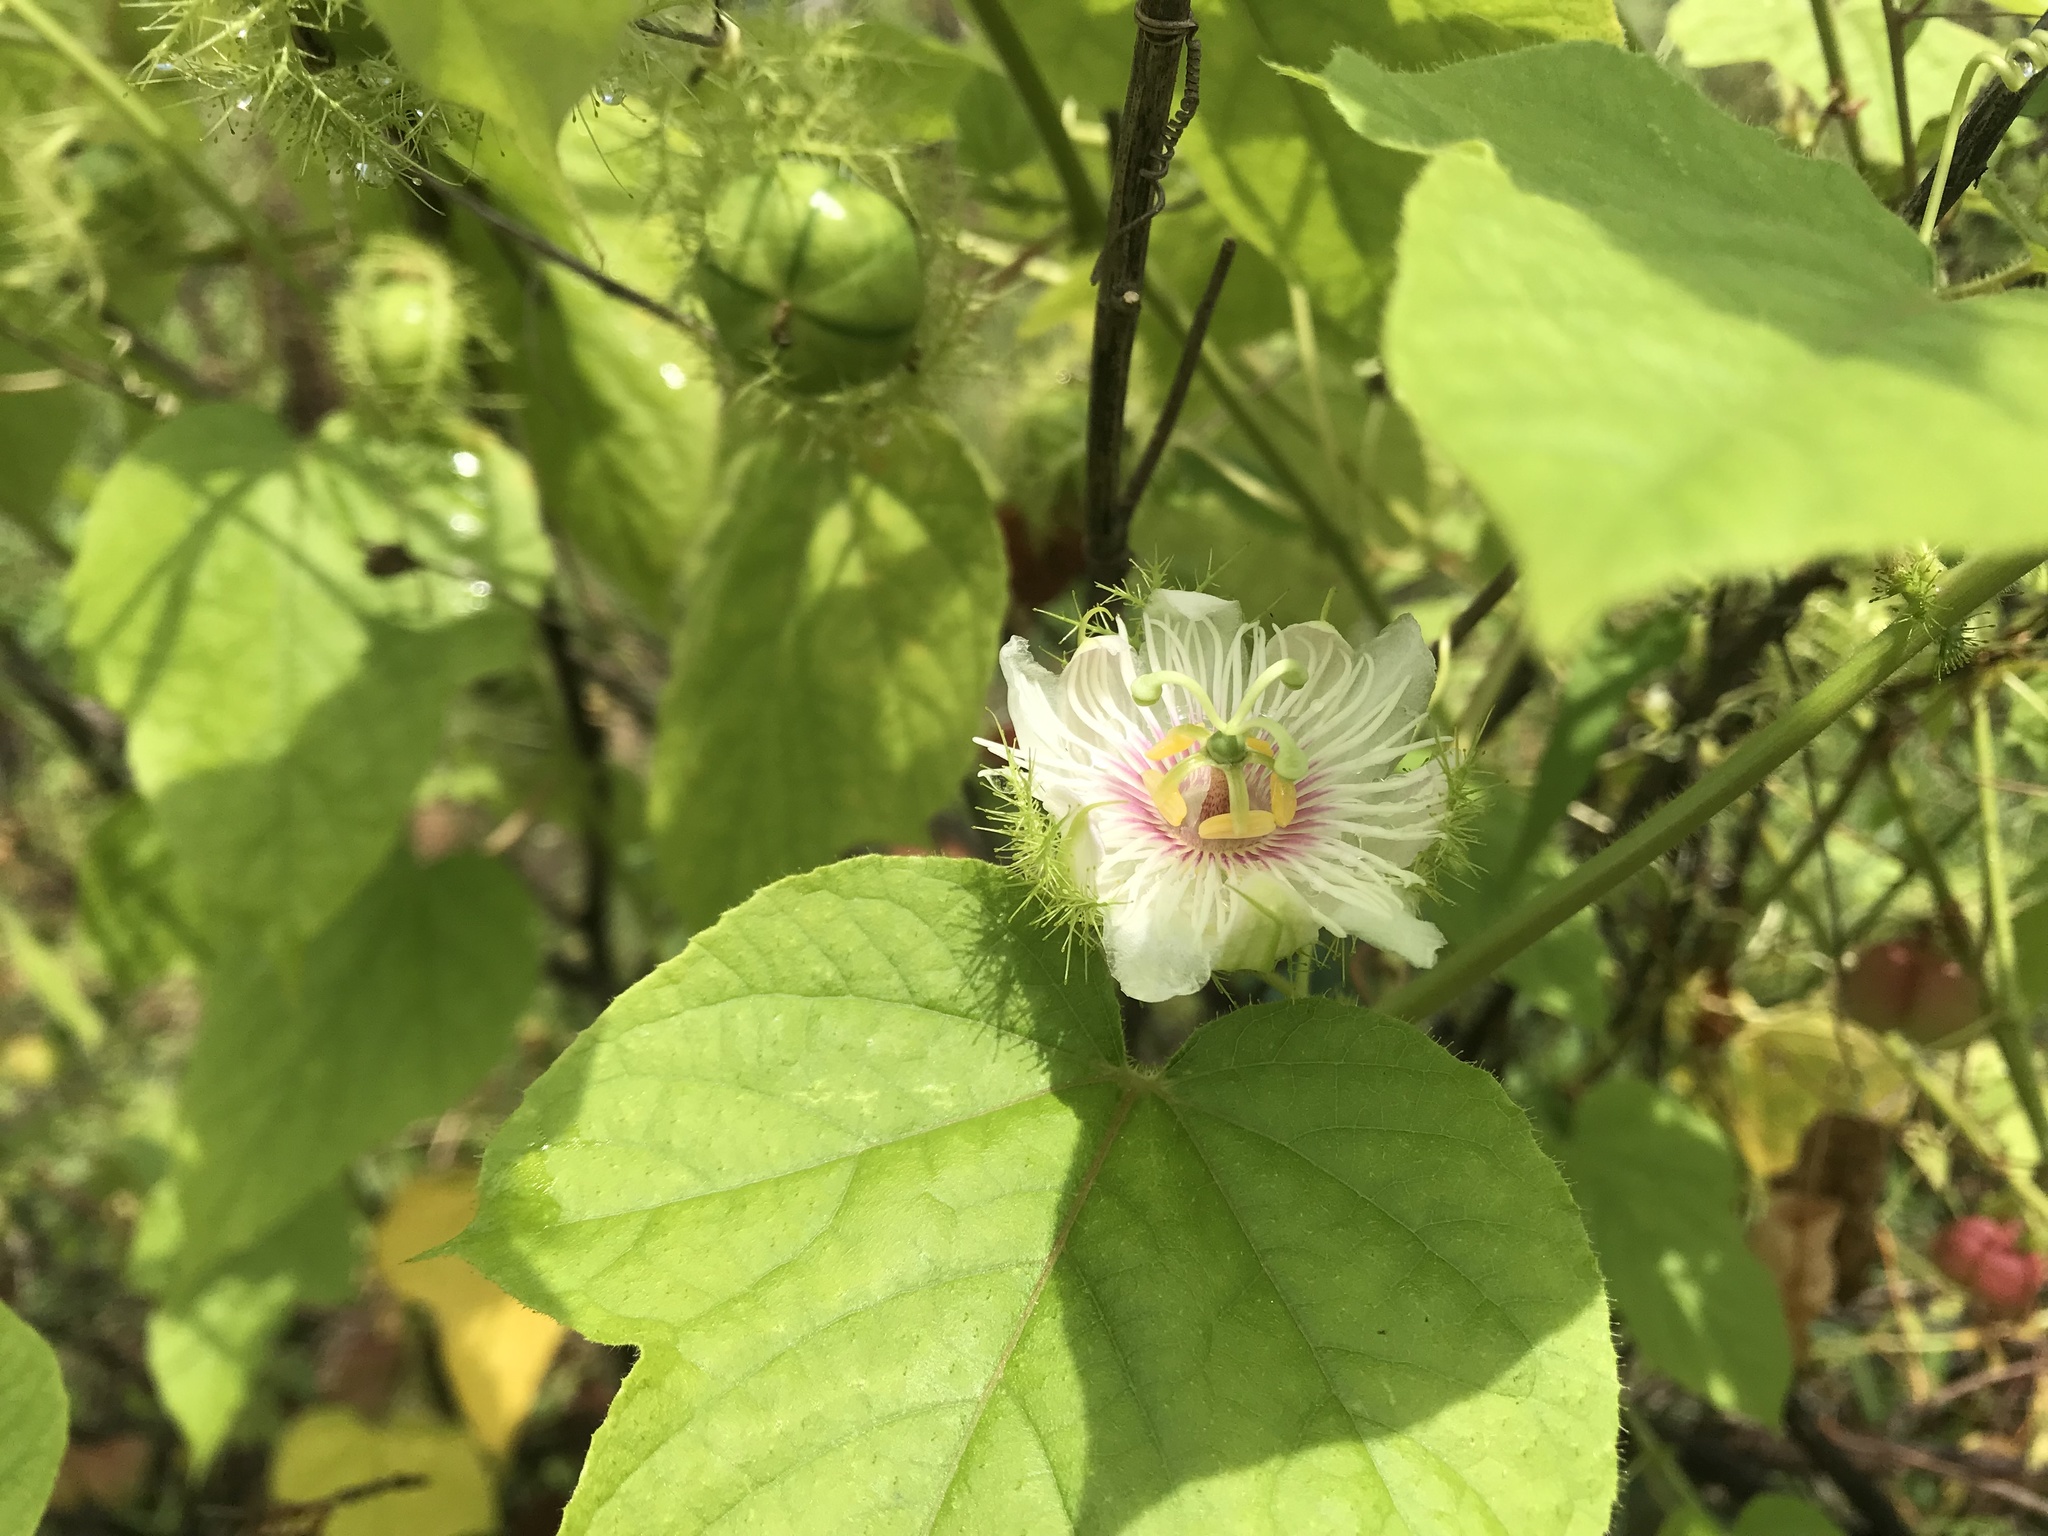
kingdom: Plantae
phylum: Tracheophyta
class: Magnoliopsida
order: Malpighiales
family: Passifloraceae
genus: Passiflora
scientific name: Passiflora vesicaria
